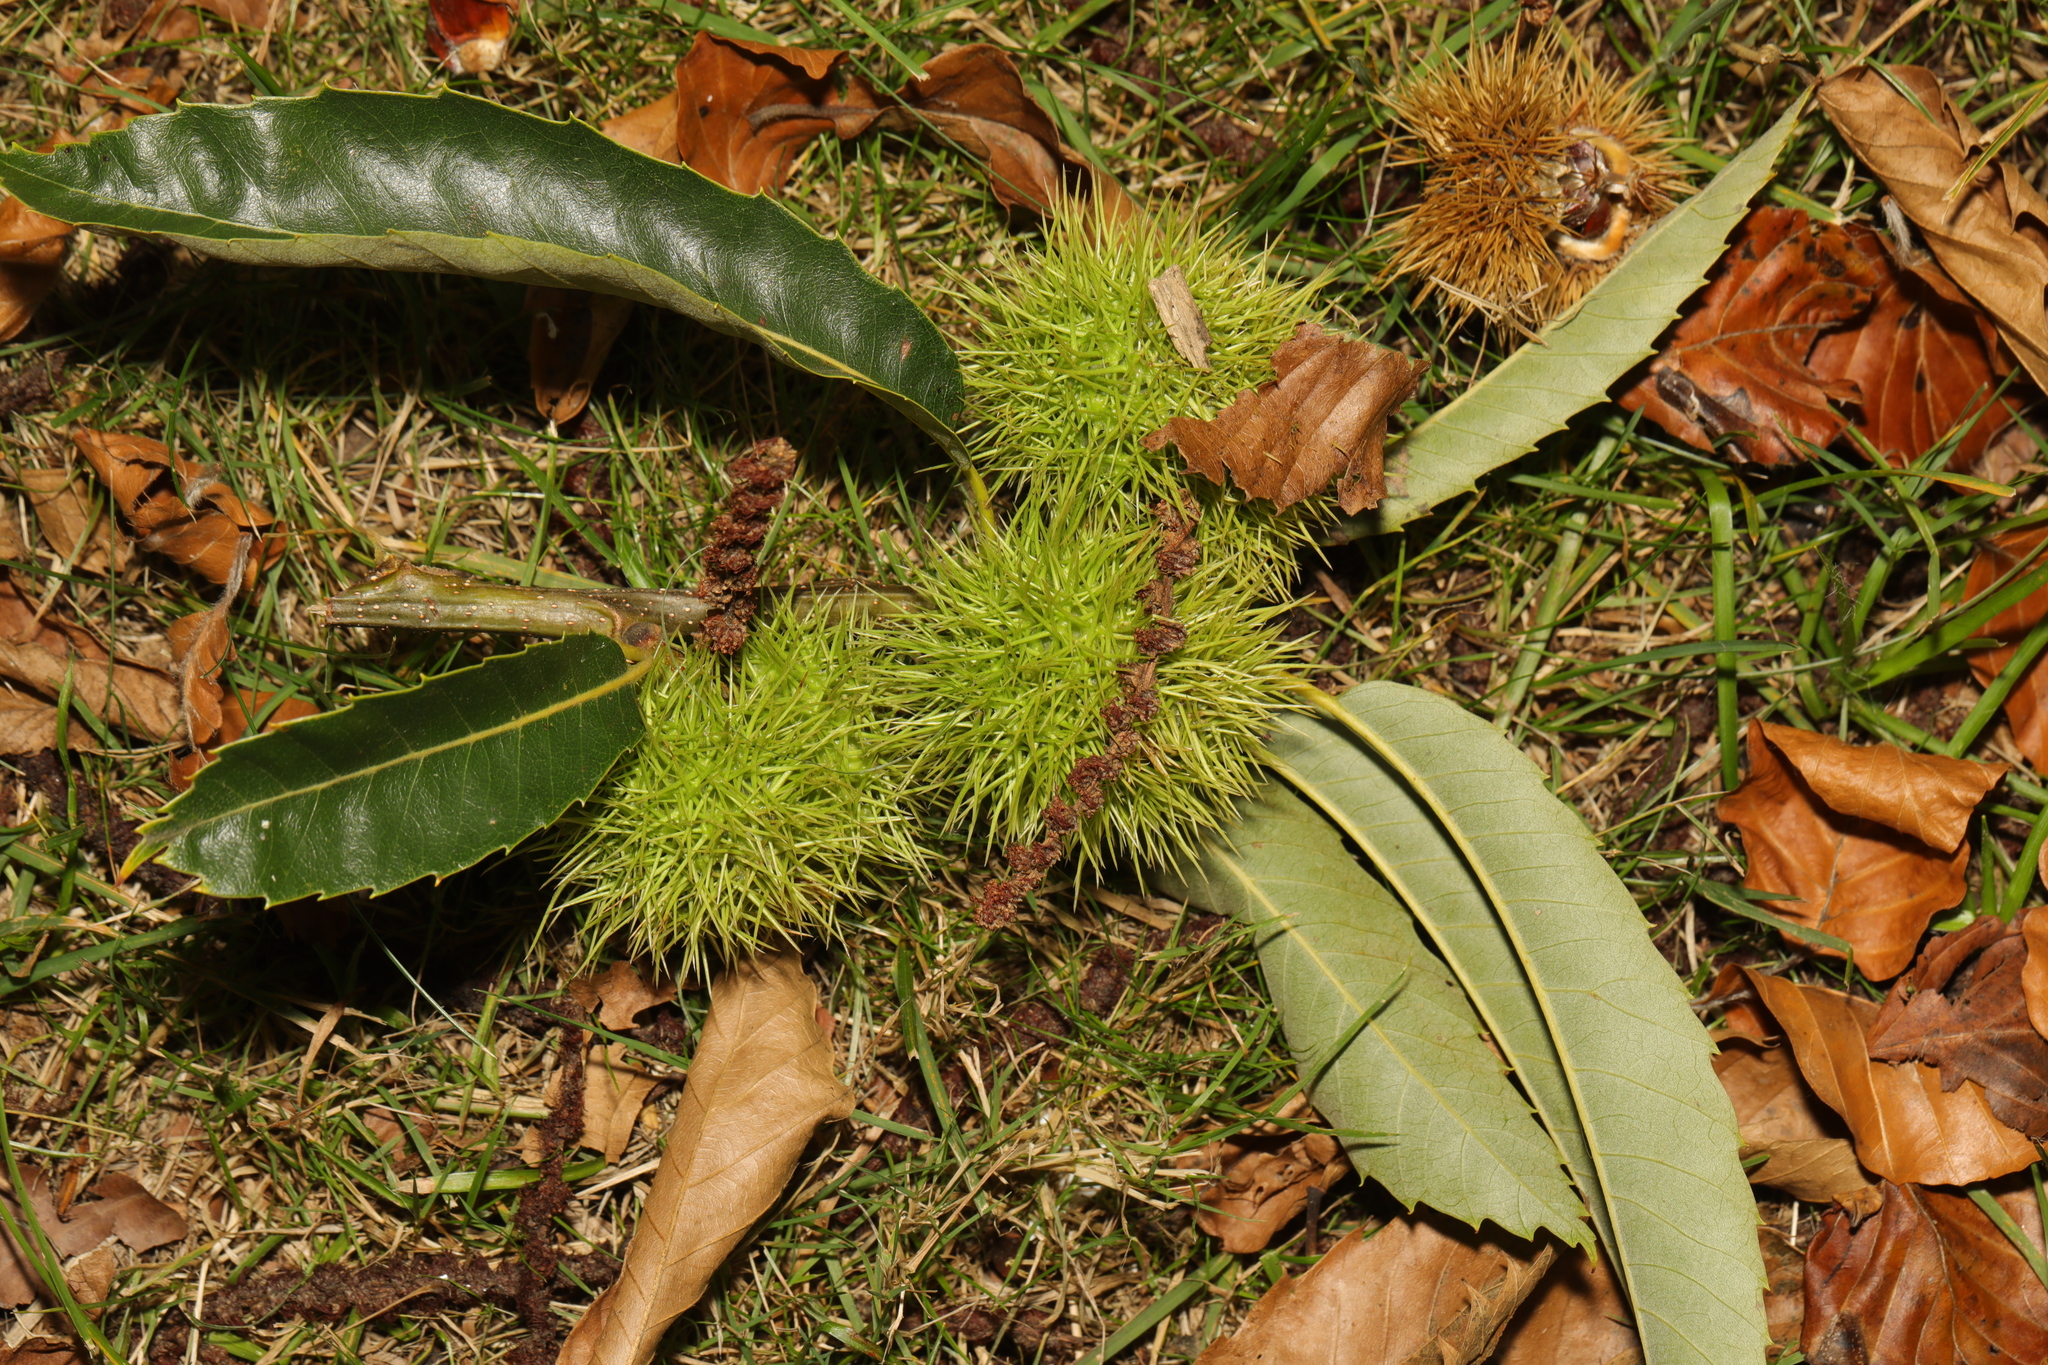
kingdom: Plantae
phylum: Tracheophyta
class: Magnoliopsida
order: Fagales
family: Fagaceae
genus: Castanea
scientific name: Castanea sativa
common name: Sweet chestnut
